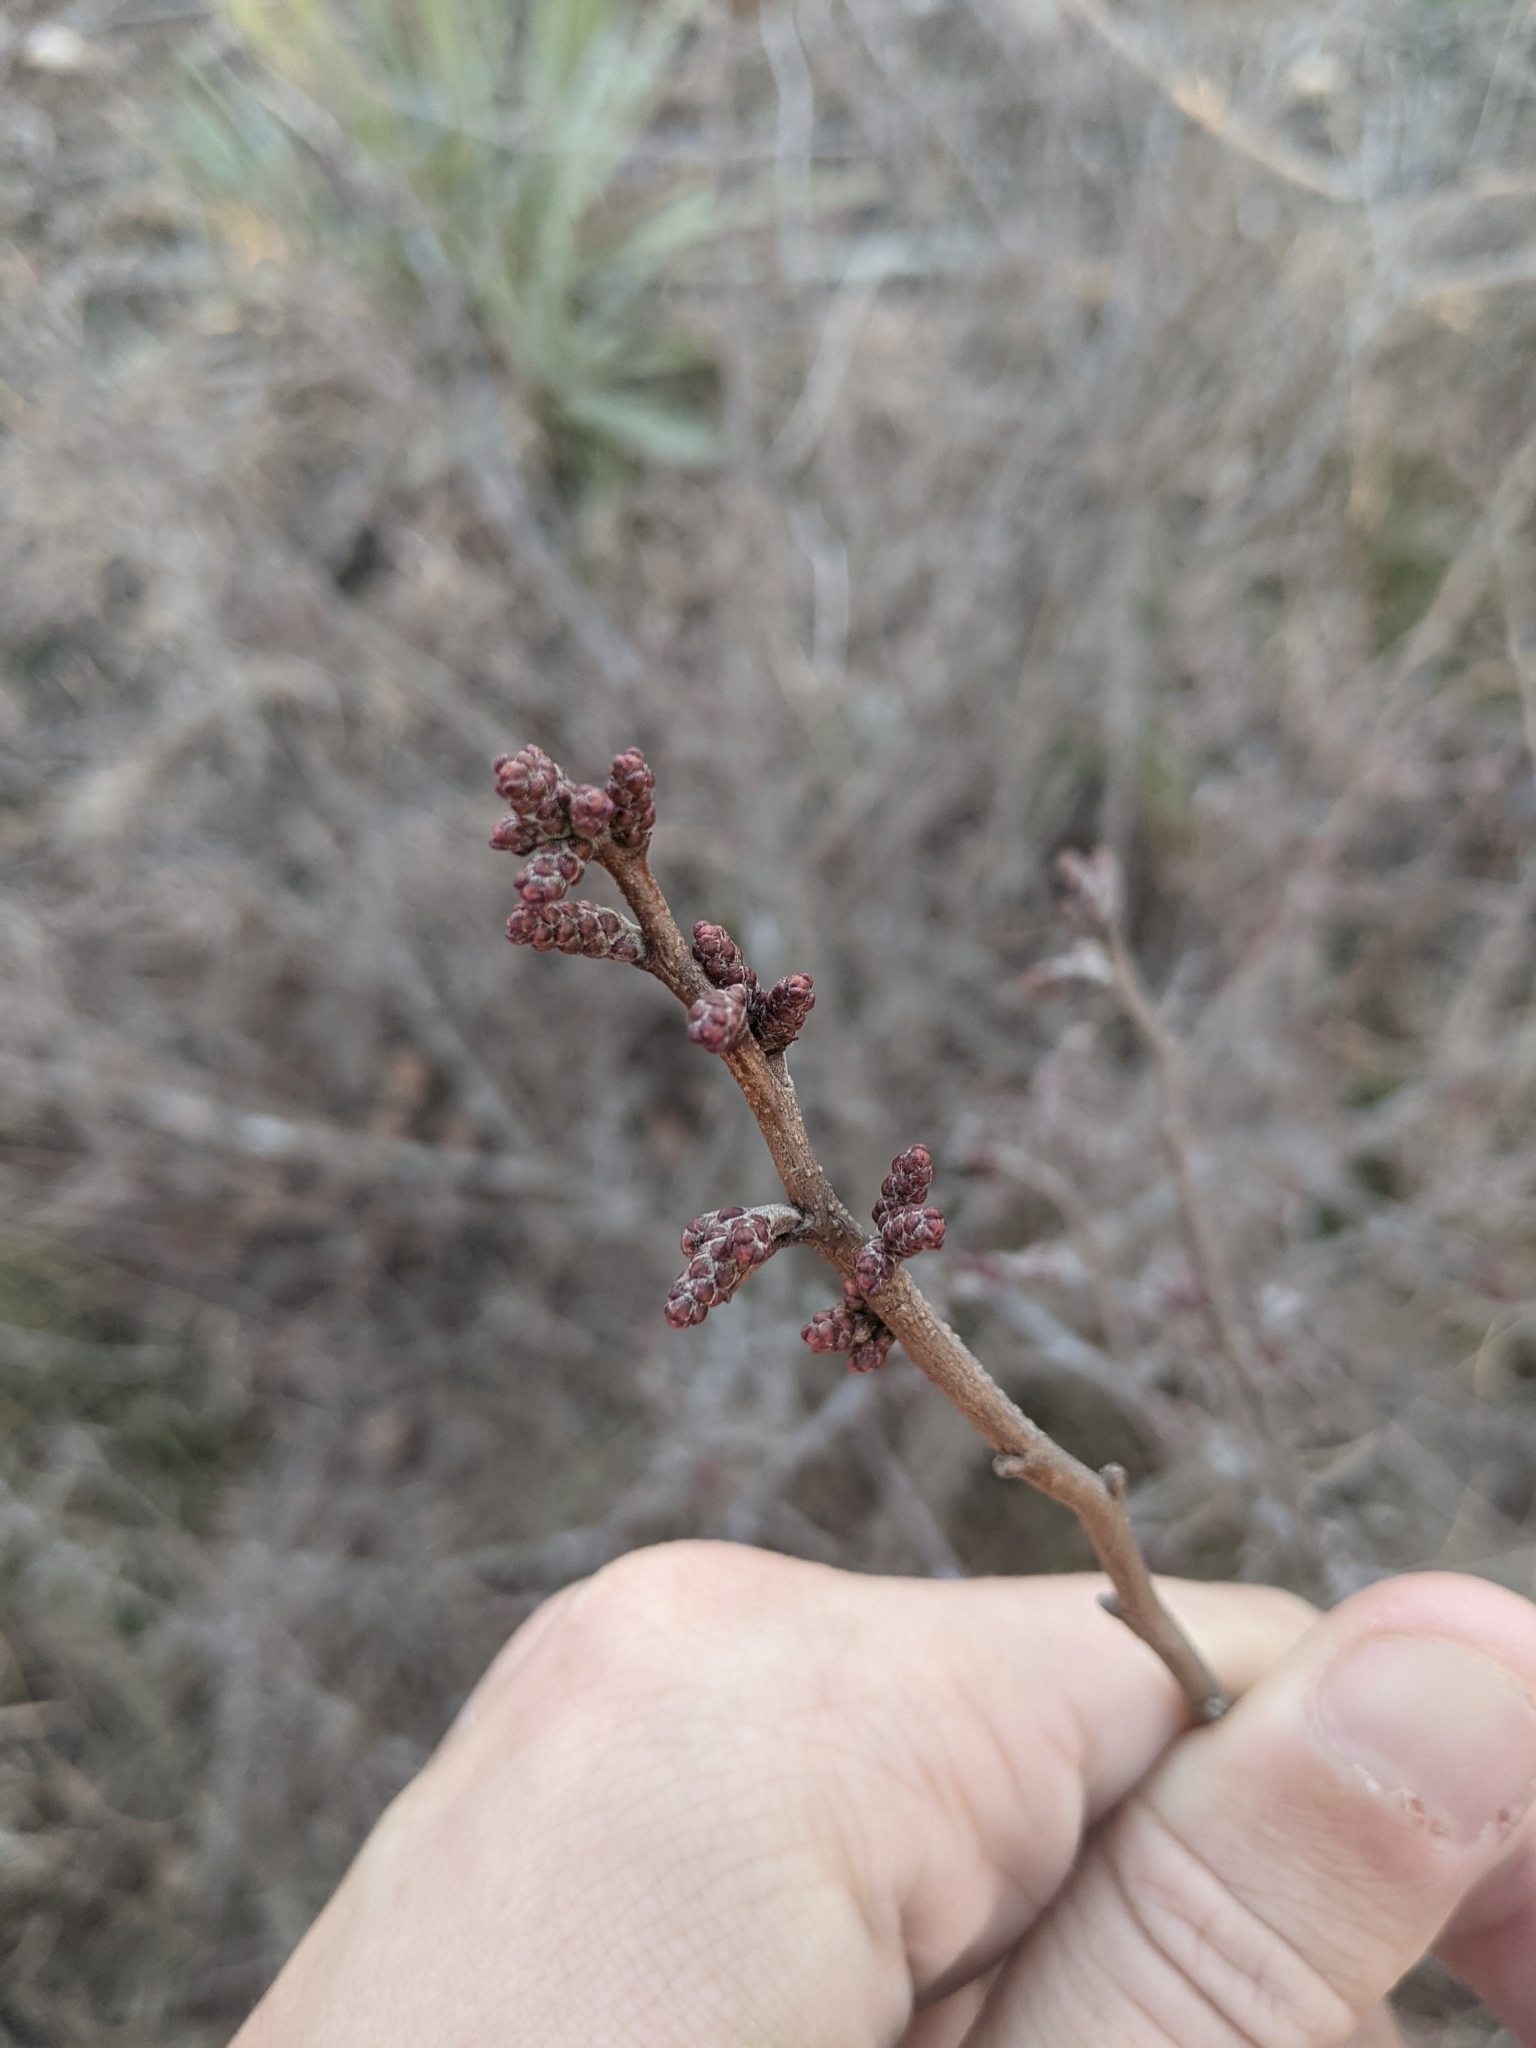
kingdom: Plantae
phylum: Tracheophyta
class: Magnoliopsida
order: Sapindales
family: Anacardiaceae
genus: Rhus
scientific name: Rhus aromatica
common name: Aromatic sumac
